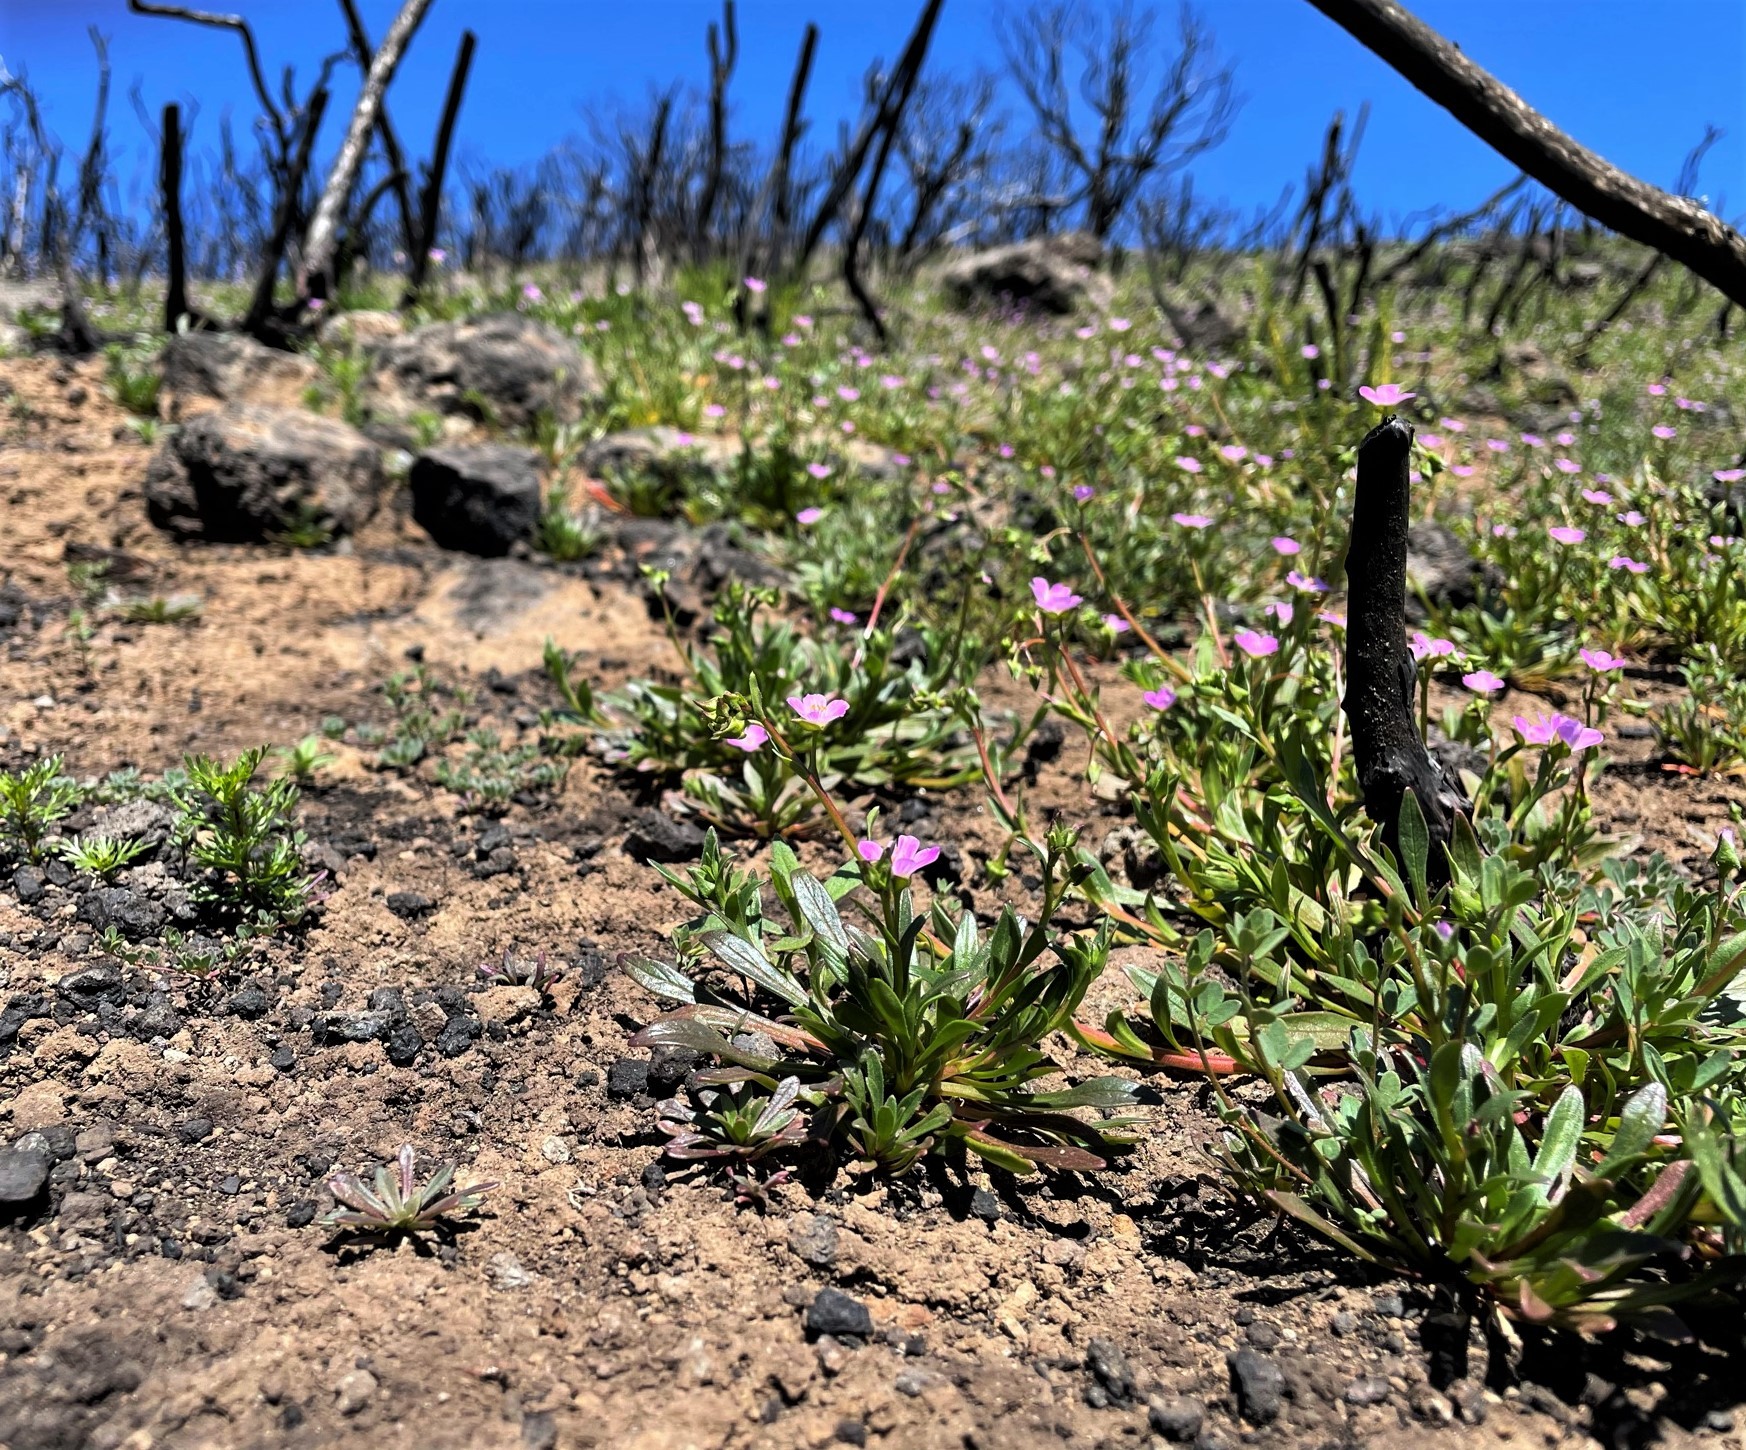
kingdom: Plantae
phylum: Tracheophyta
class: Magnoliopsida
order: Caryophyllales
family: Montiaceae
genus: Calandrinia
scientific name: Calandrinia breweri
